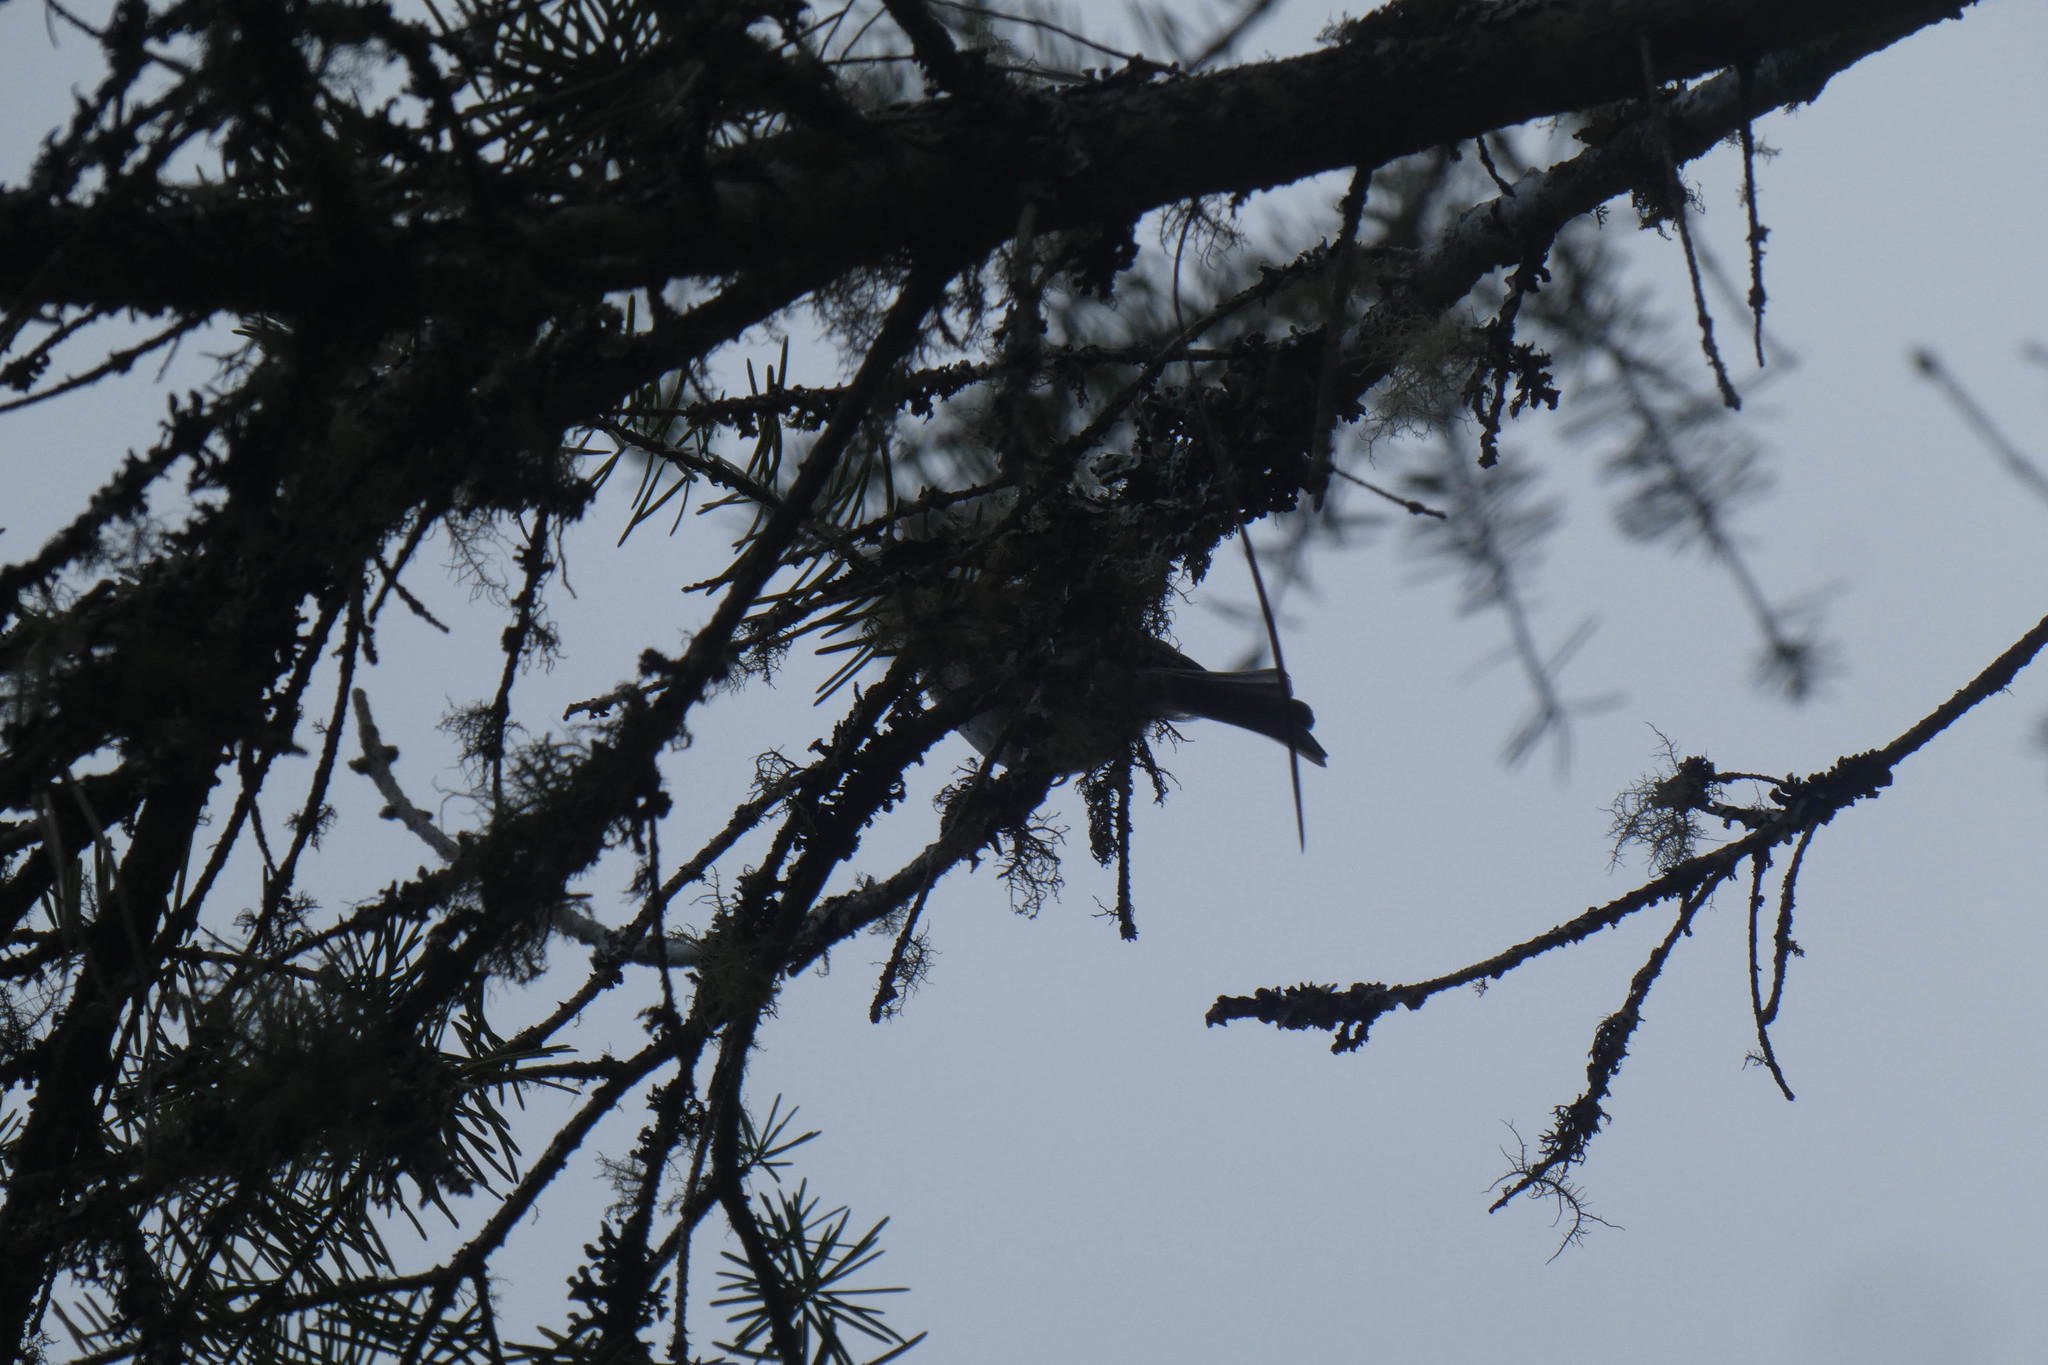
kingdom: Animalia
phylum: Chordata
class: Aves
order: Passeriformes
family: Passerellidae
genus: Junco
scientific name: Junco hyemalis
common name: Dark-eyed junco
